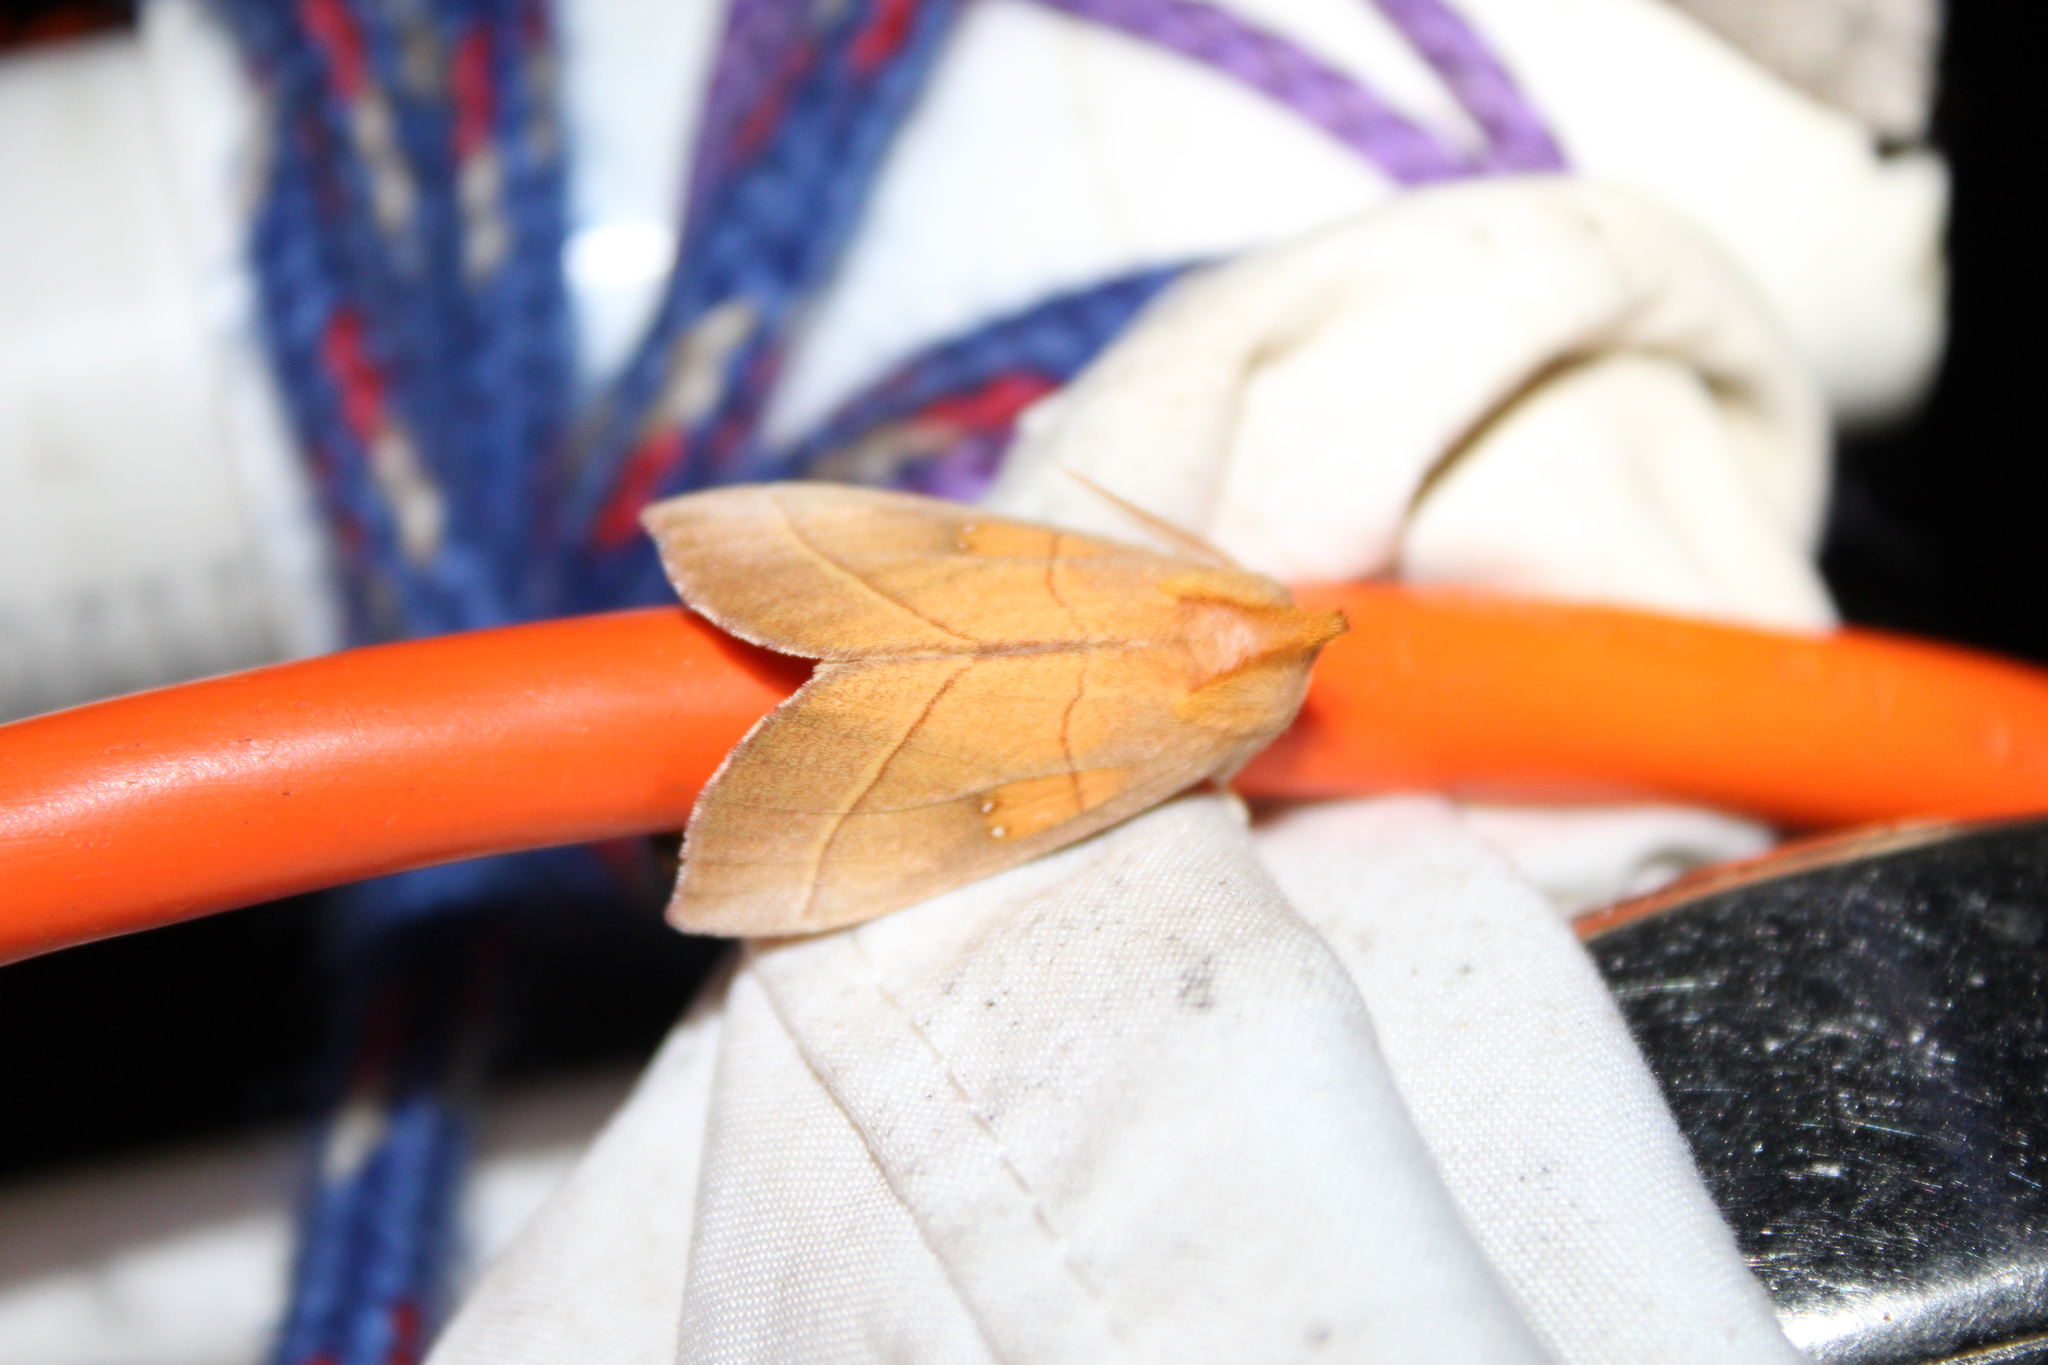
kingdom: Animalia
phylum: Arthropoda
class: Insecta
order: Lepidoptera
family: Notodontidae
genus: Nadata
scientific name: Nadata gibbosa
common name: White-dotted prominent
